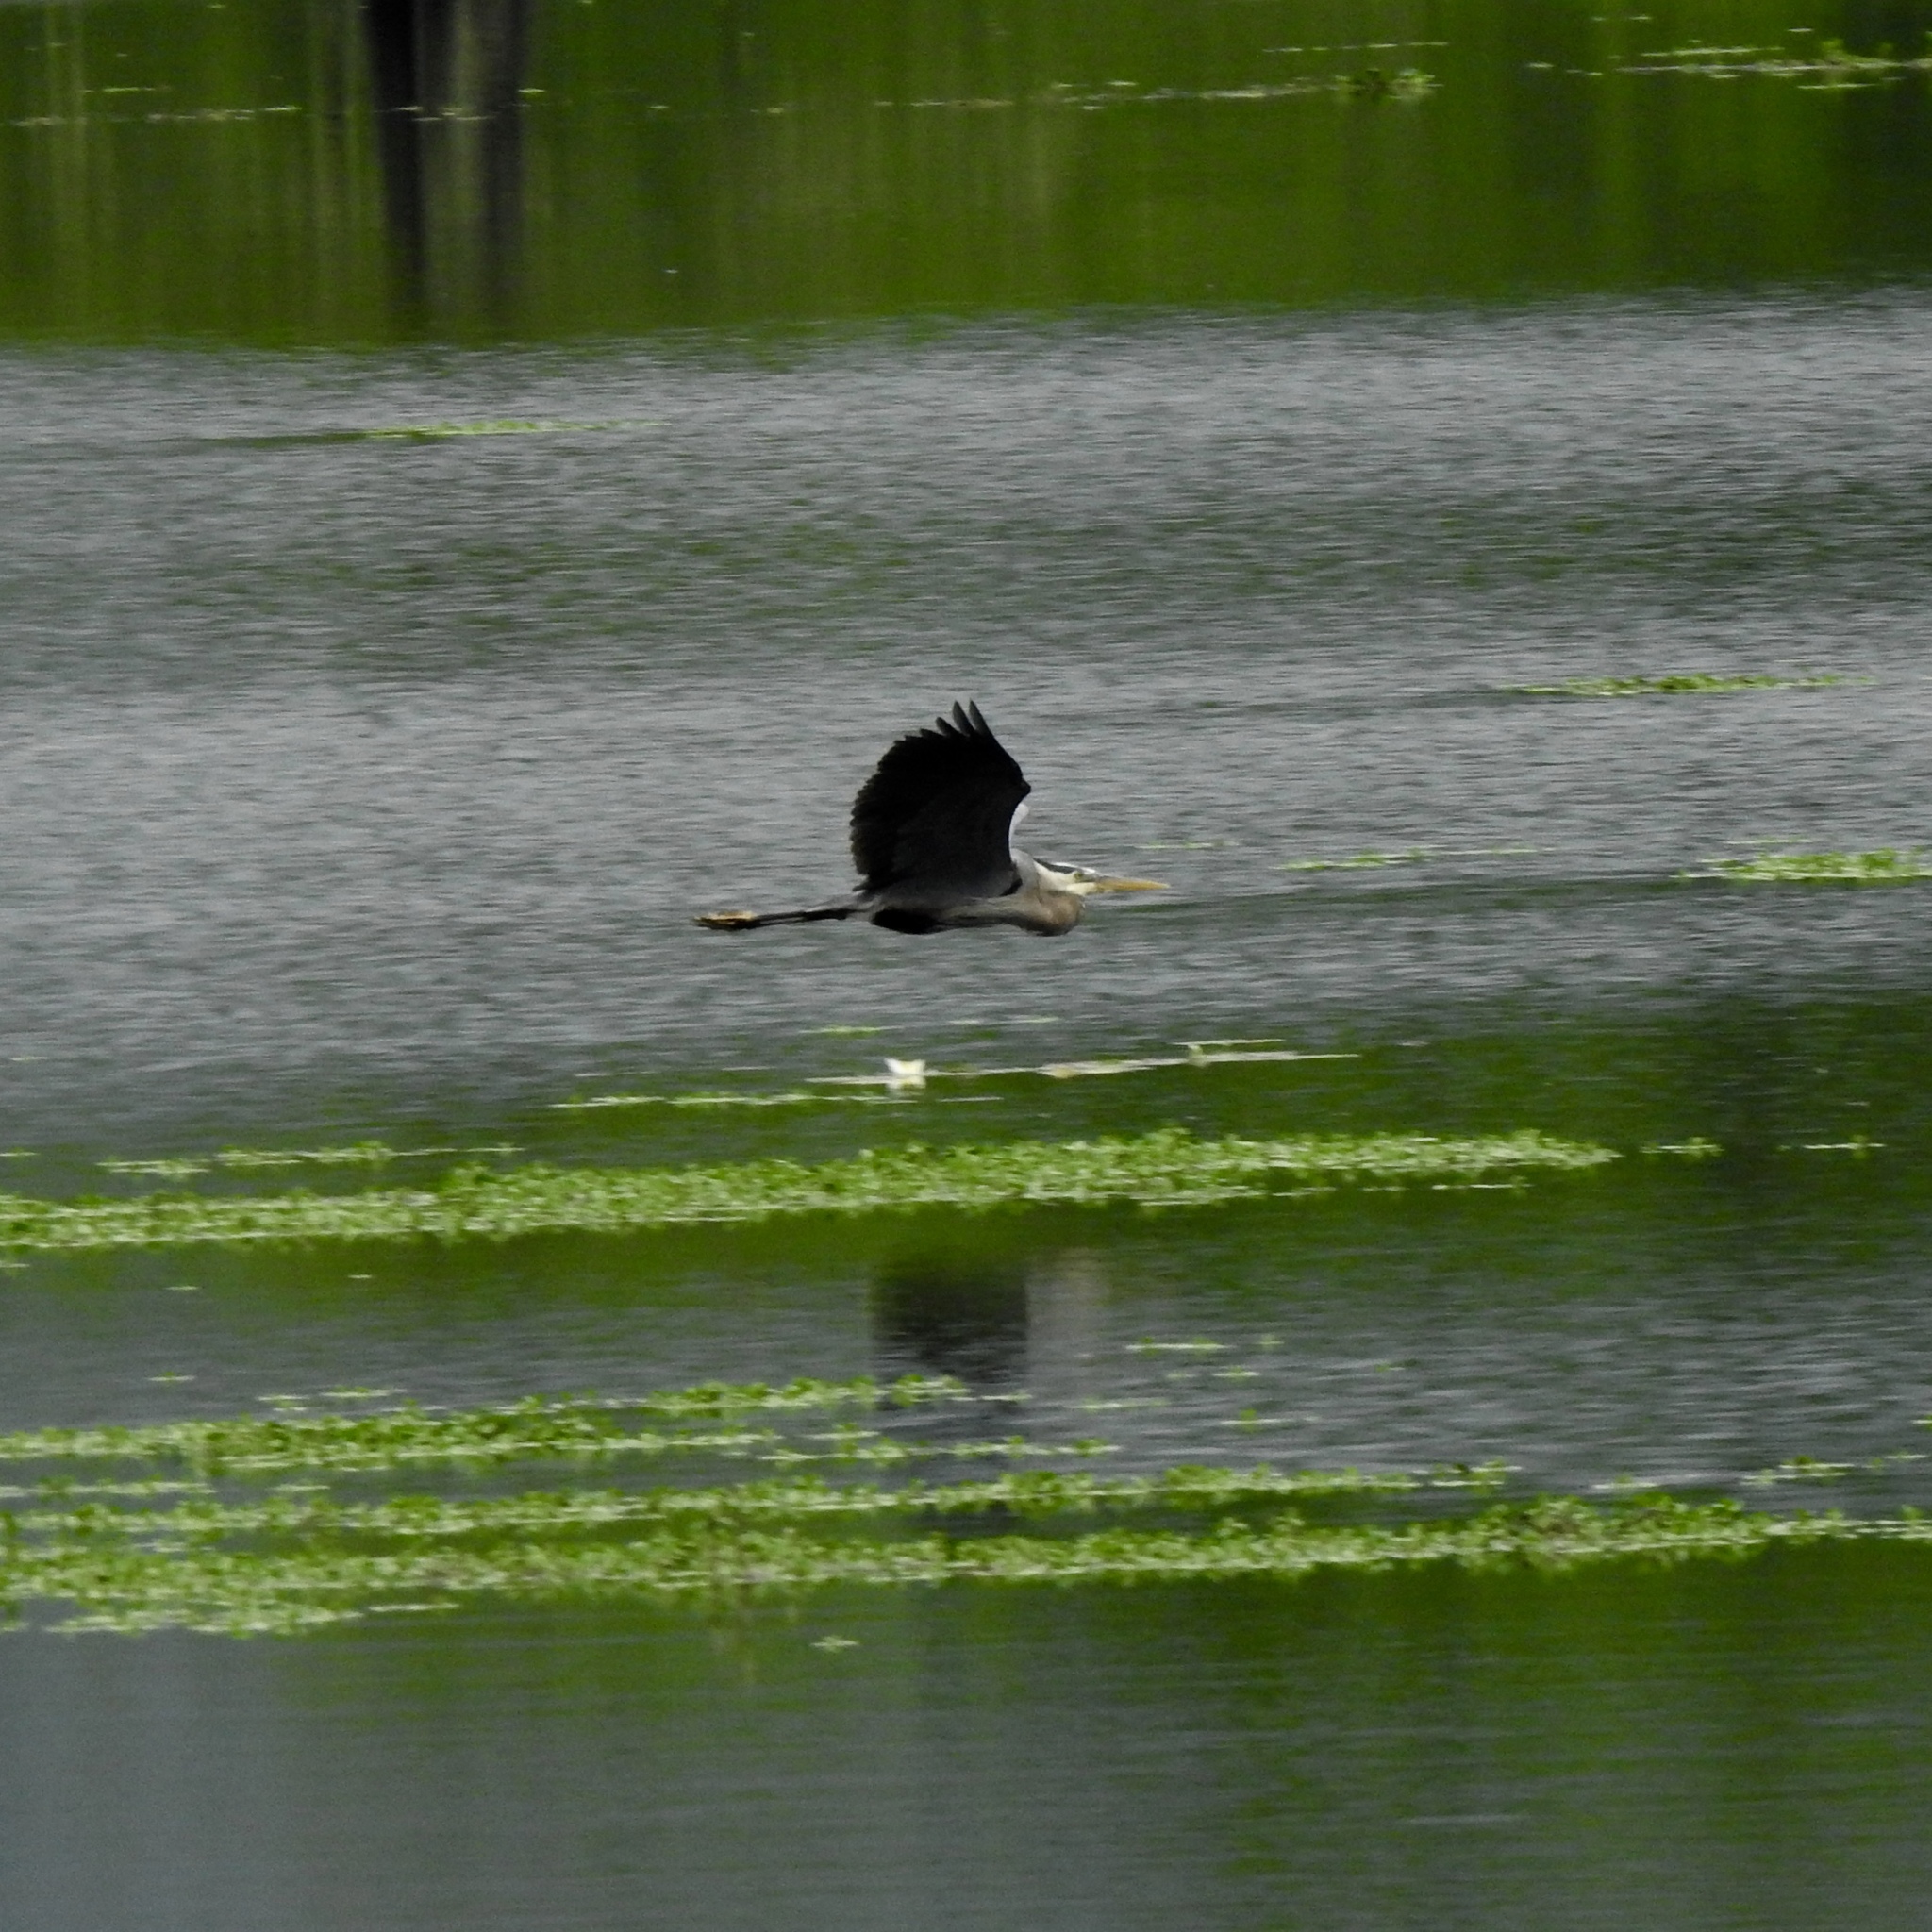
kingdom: Animalia
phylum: Chordata
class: Aves
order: Pelecaniformes
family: Ardeidae
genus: Ardea
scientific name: Ardea herodias
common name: Great blue heron
